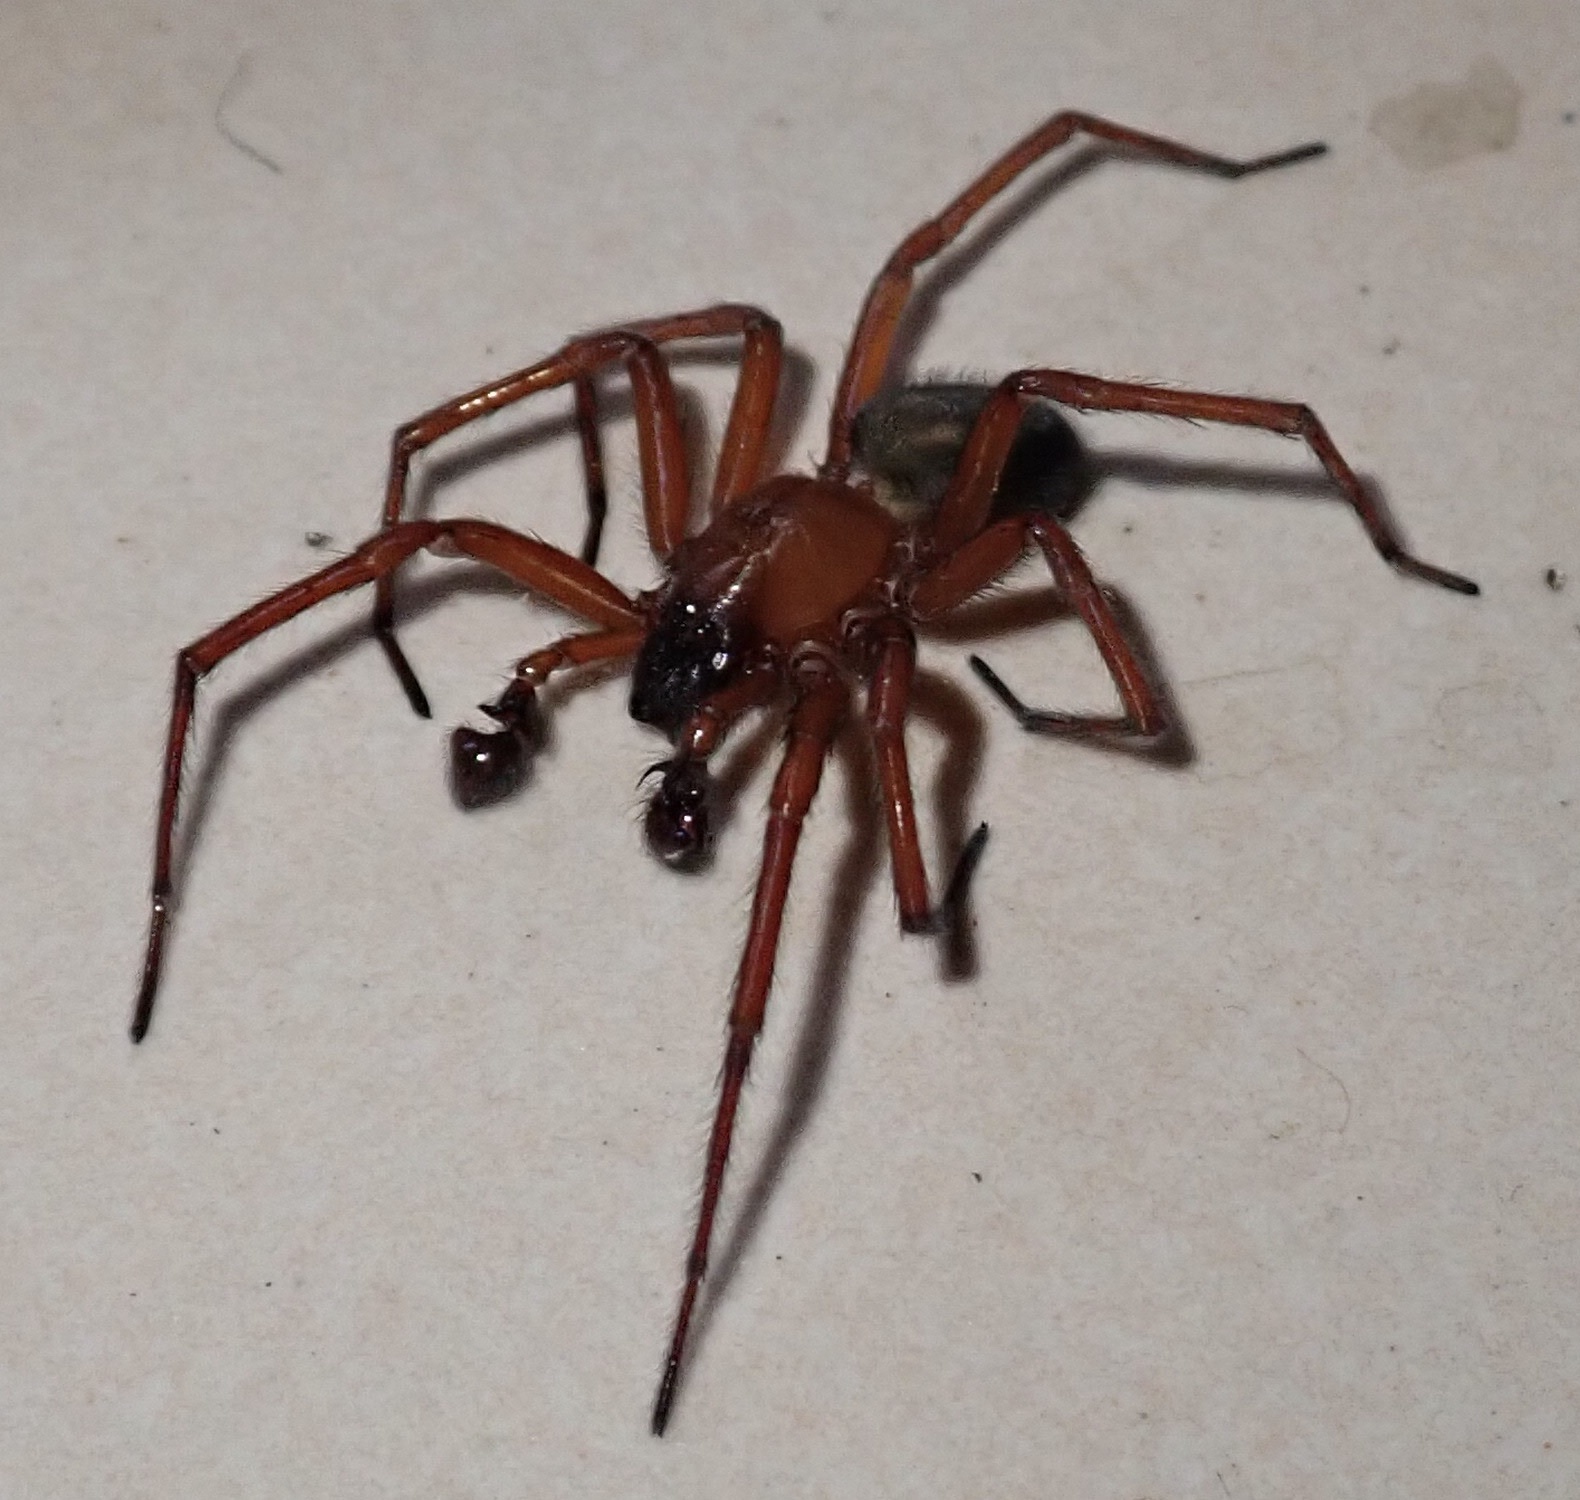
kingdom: Animalia
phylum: Arthropoda
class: Arachnida
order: Araneae
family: Amaurobiidae
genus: Callobius
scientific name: Callobius severus
